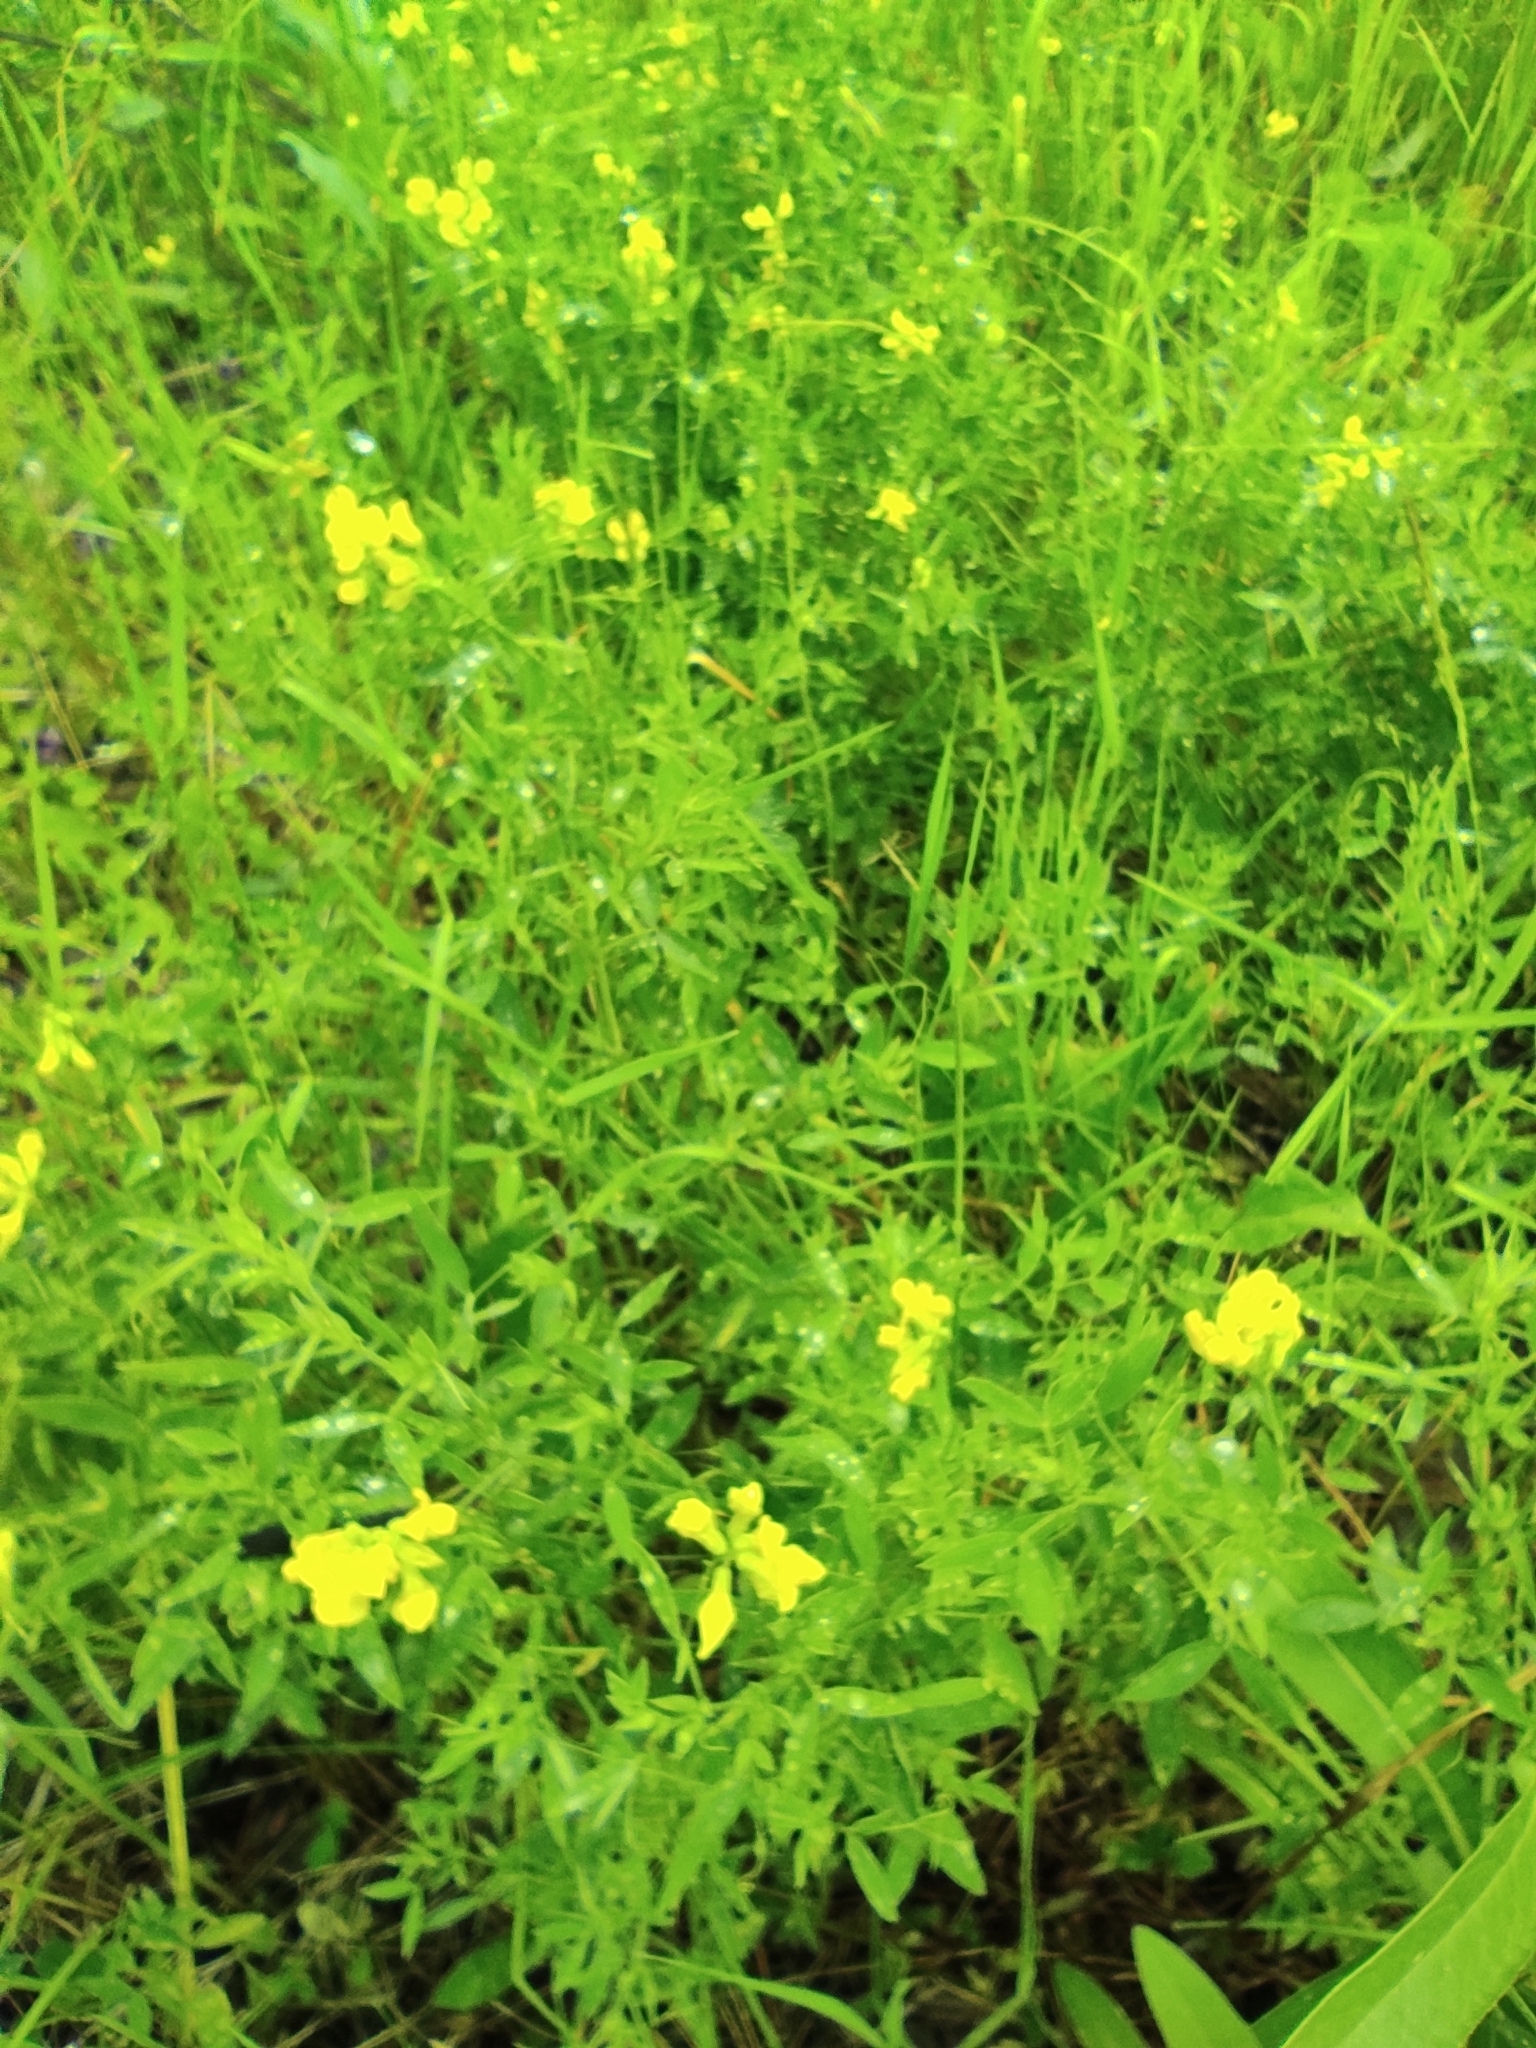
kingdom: Plantae
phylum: Tracheophyta
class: Magnoliopsida
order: Fabales
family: Fabaceae
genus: Lathyrus
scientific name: Lathyrus pratensis
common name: Meadow vetchling
